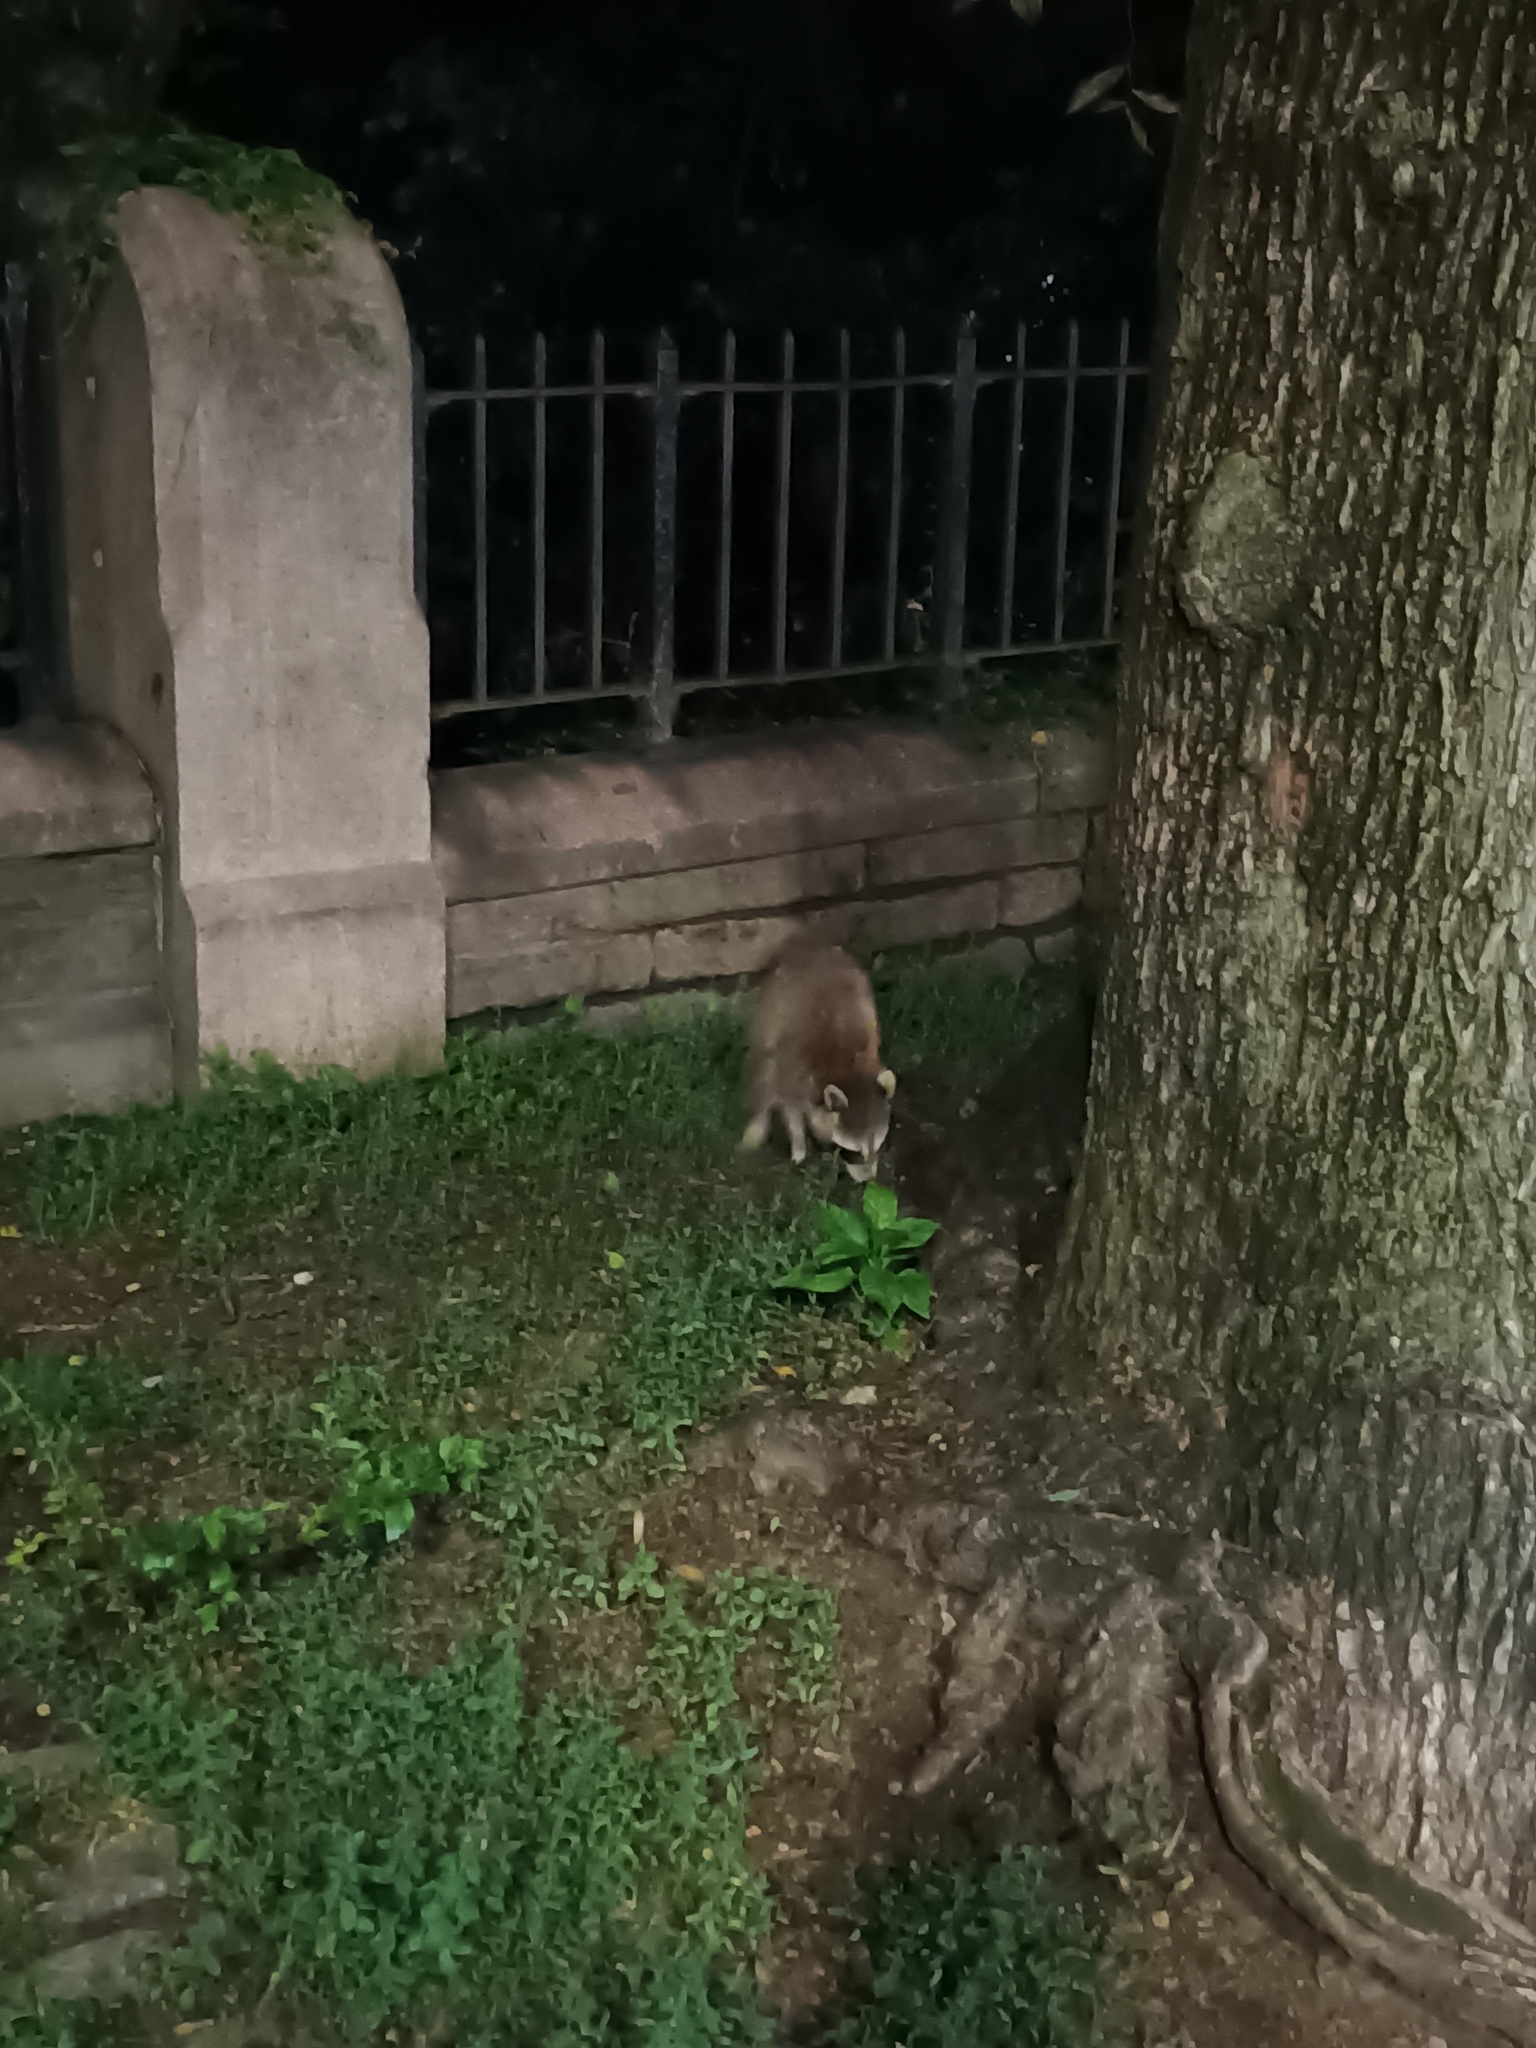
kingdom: Animalia
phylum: Chordata
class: Mammalia
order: Carnivora
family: Procyonidae
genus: Procyon
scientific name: Procyon lotor
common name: Raccoon
